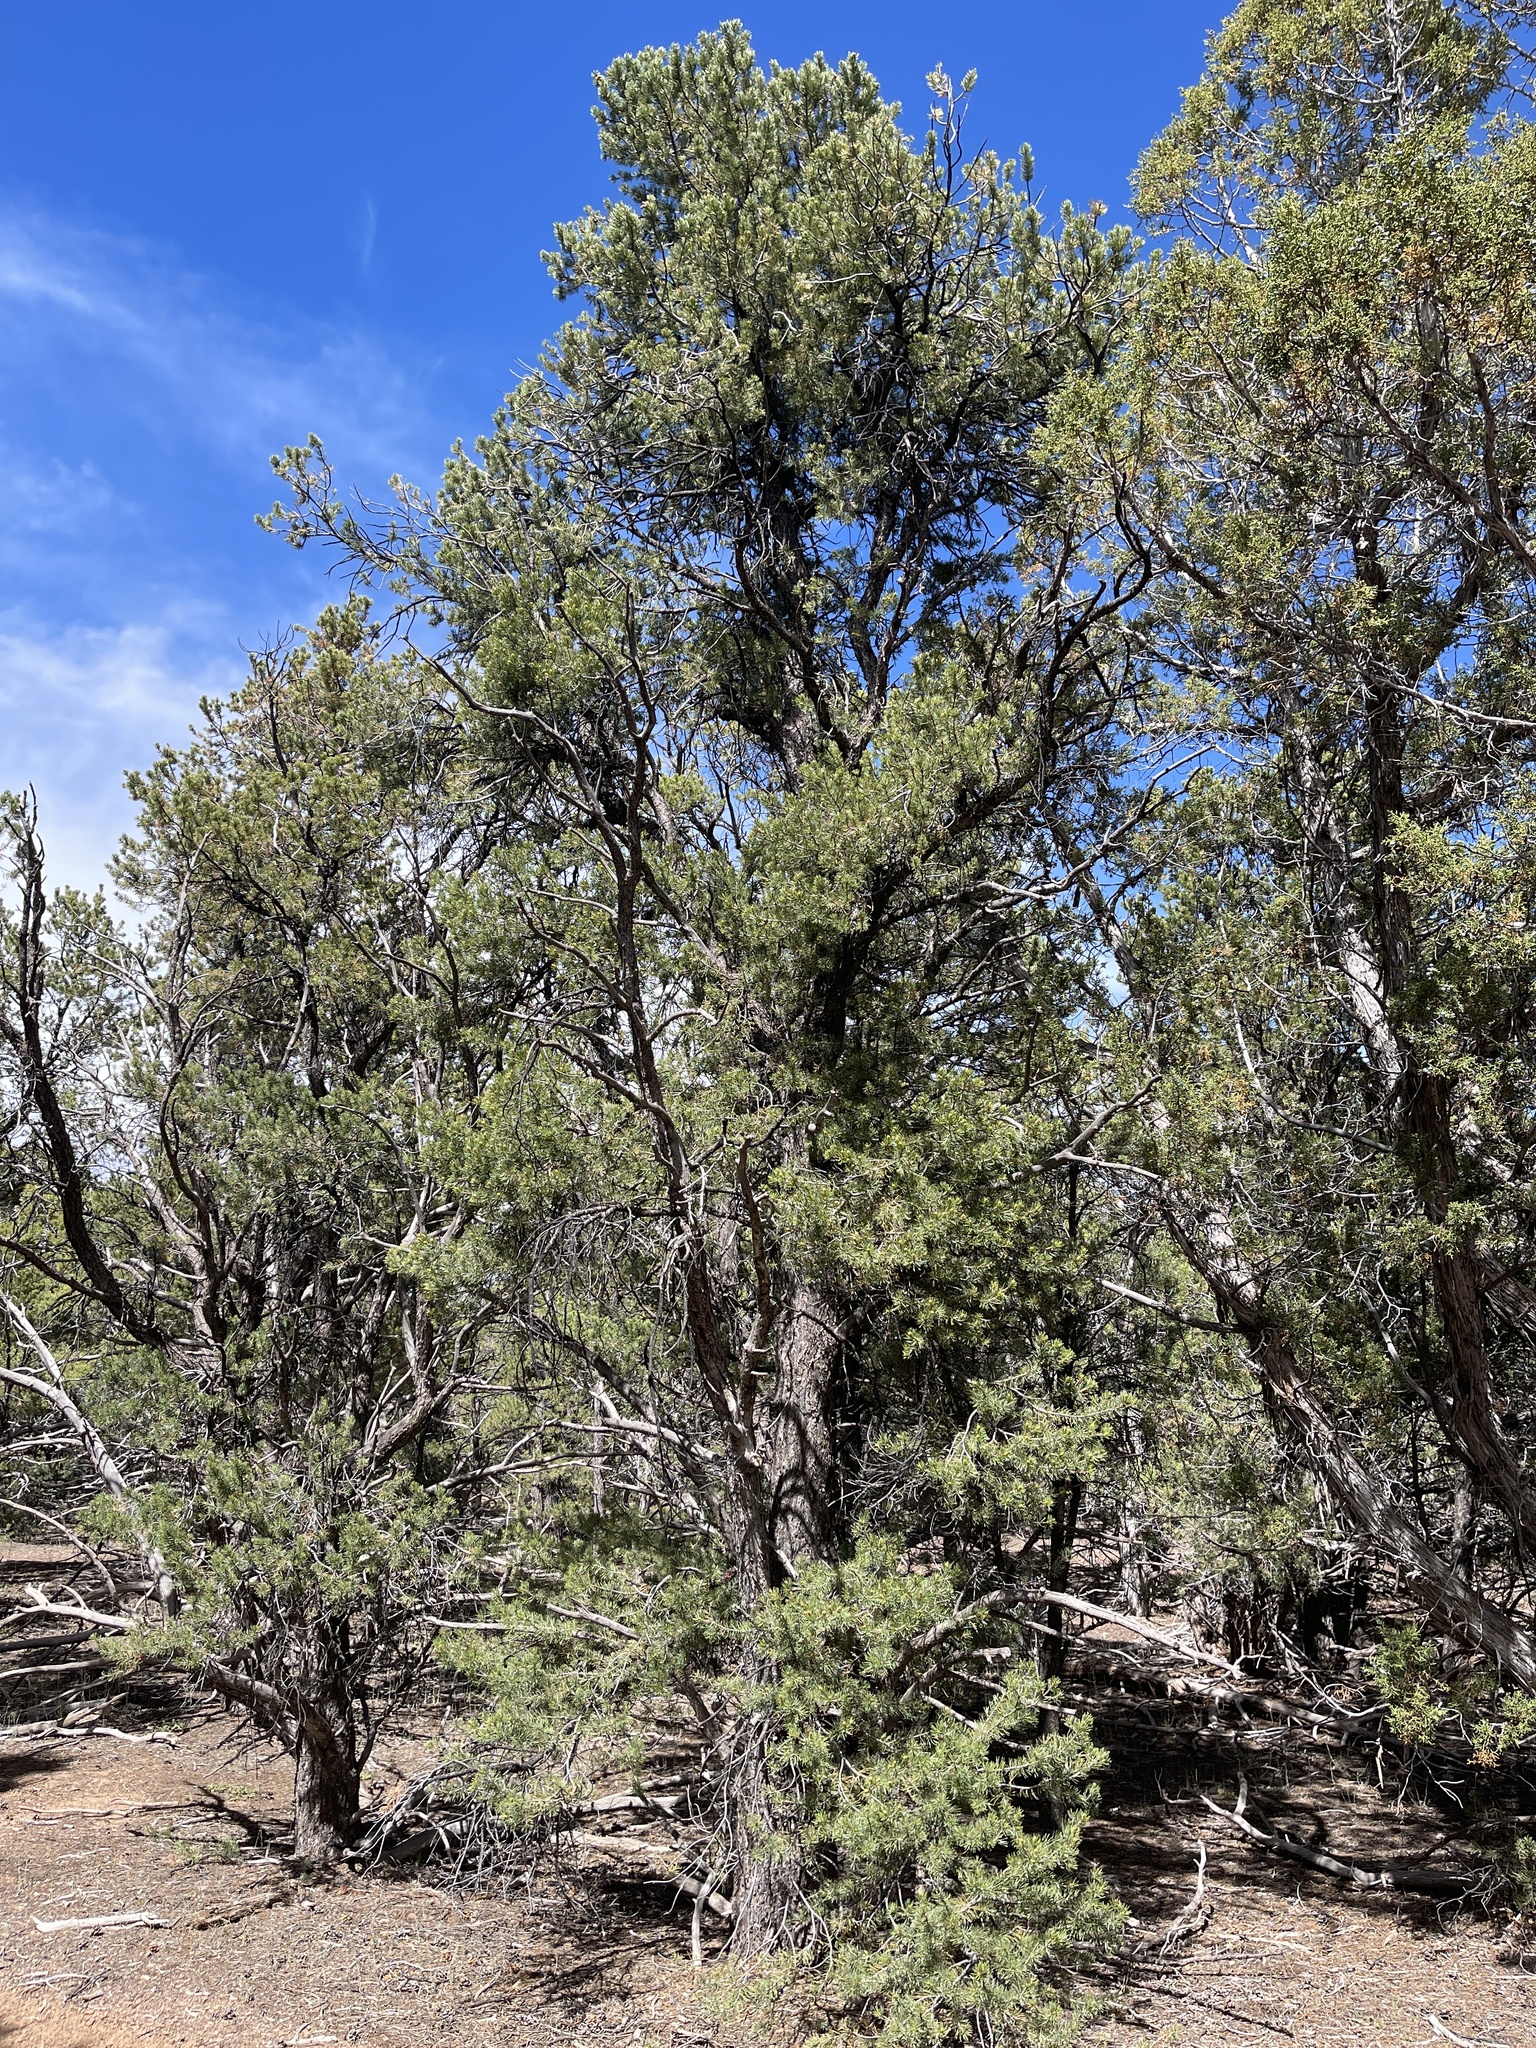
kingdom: Plantae
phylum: Tracheophyta
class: Pinopsida
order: Pinales
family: Pinaceae
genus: Pinus
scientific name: Pinus edulis
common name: Colorado pinyon
